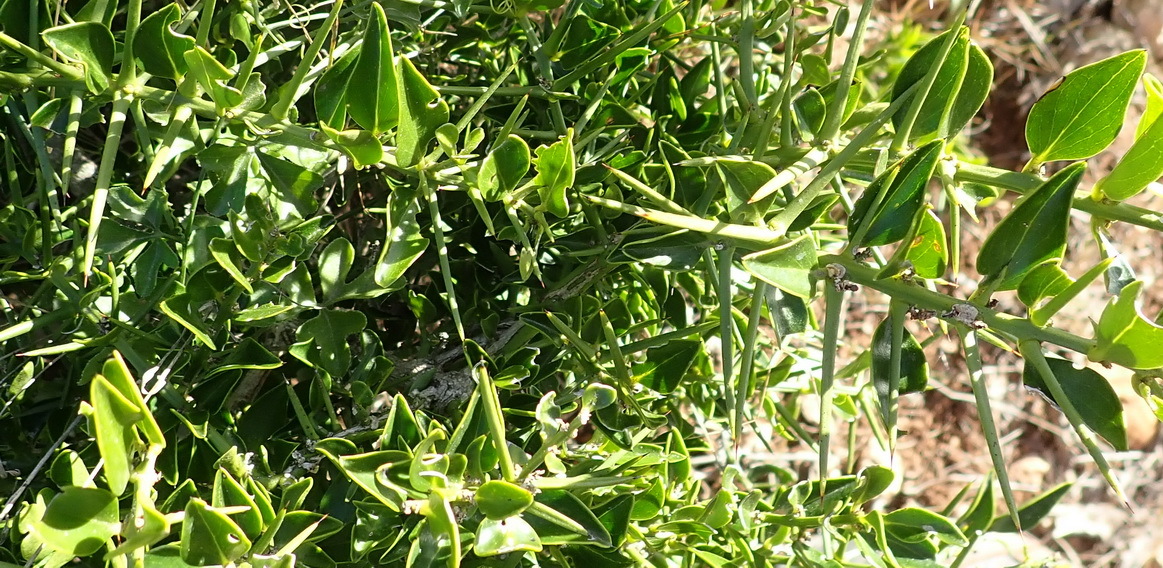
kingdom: Plantae
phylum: Tracheophyta
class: Magnoliopsida
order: Brassicales
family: Salvadoraceae
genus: Azima
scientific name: Azima tetracantha
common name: Needle bush
